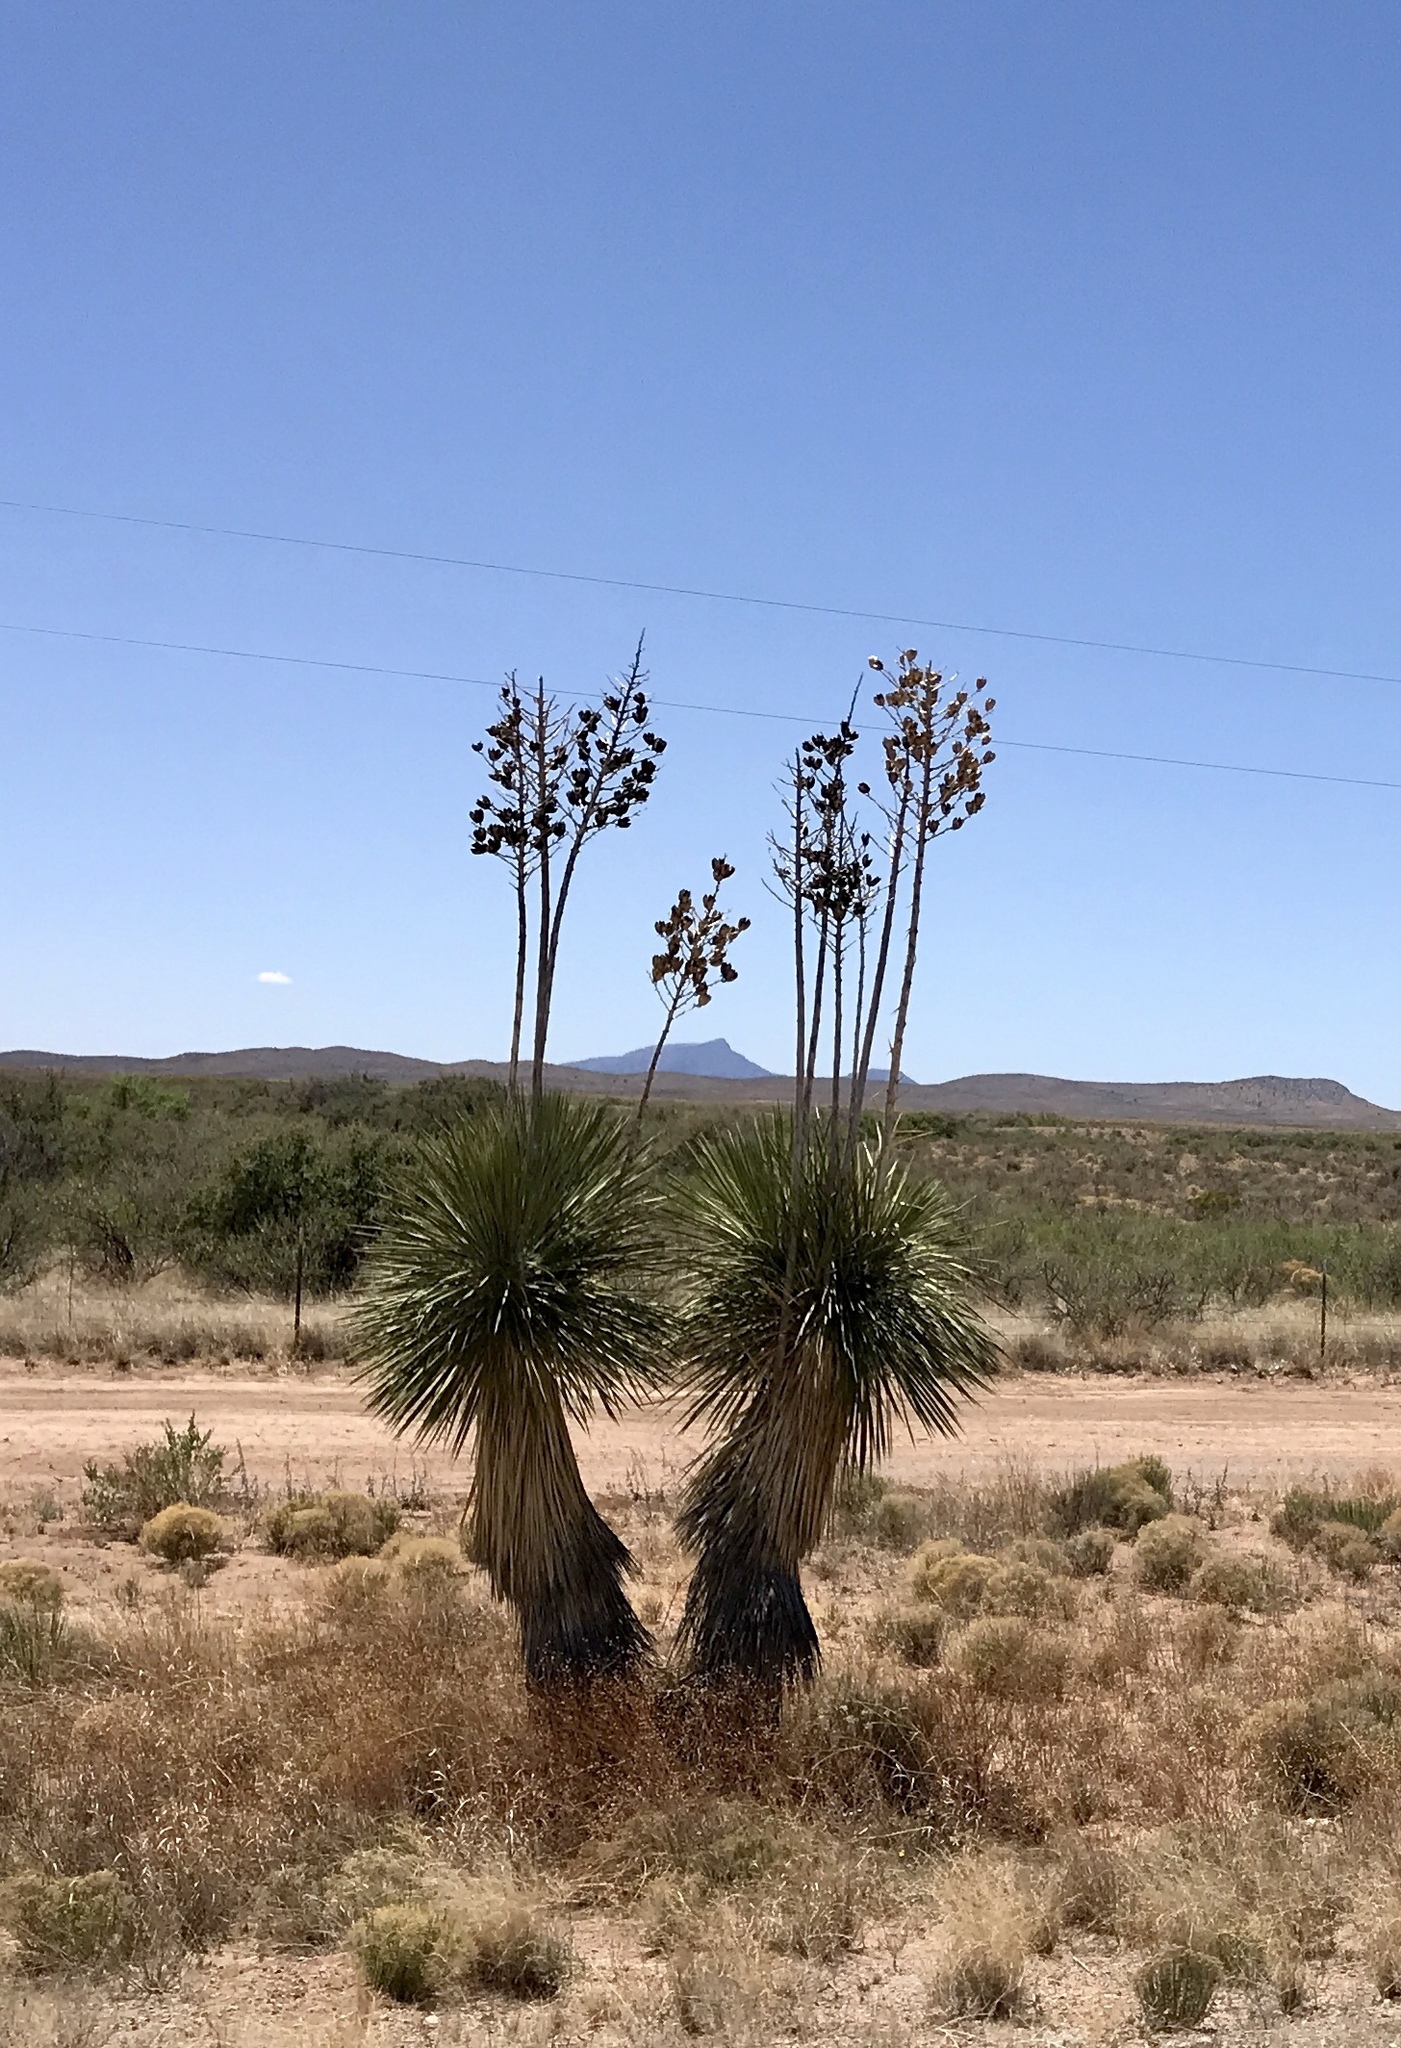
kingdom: Plantae
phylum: Tracheophyta
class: Liliopsida
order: Asparagales
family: Asparagaceae
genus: Yucca
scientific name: Yucca elata
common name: Palmella
